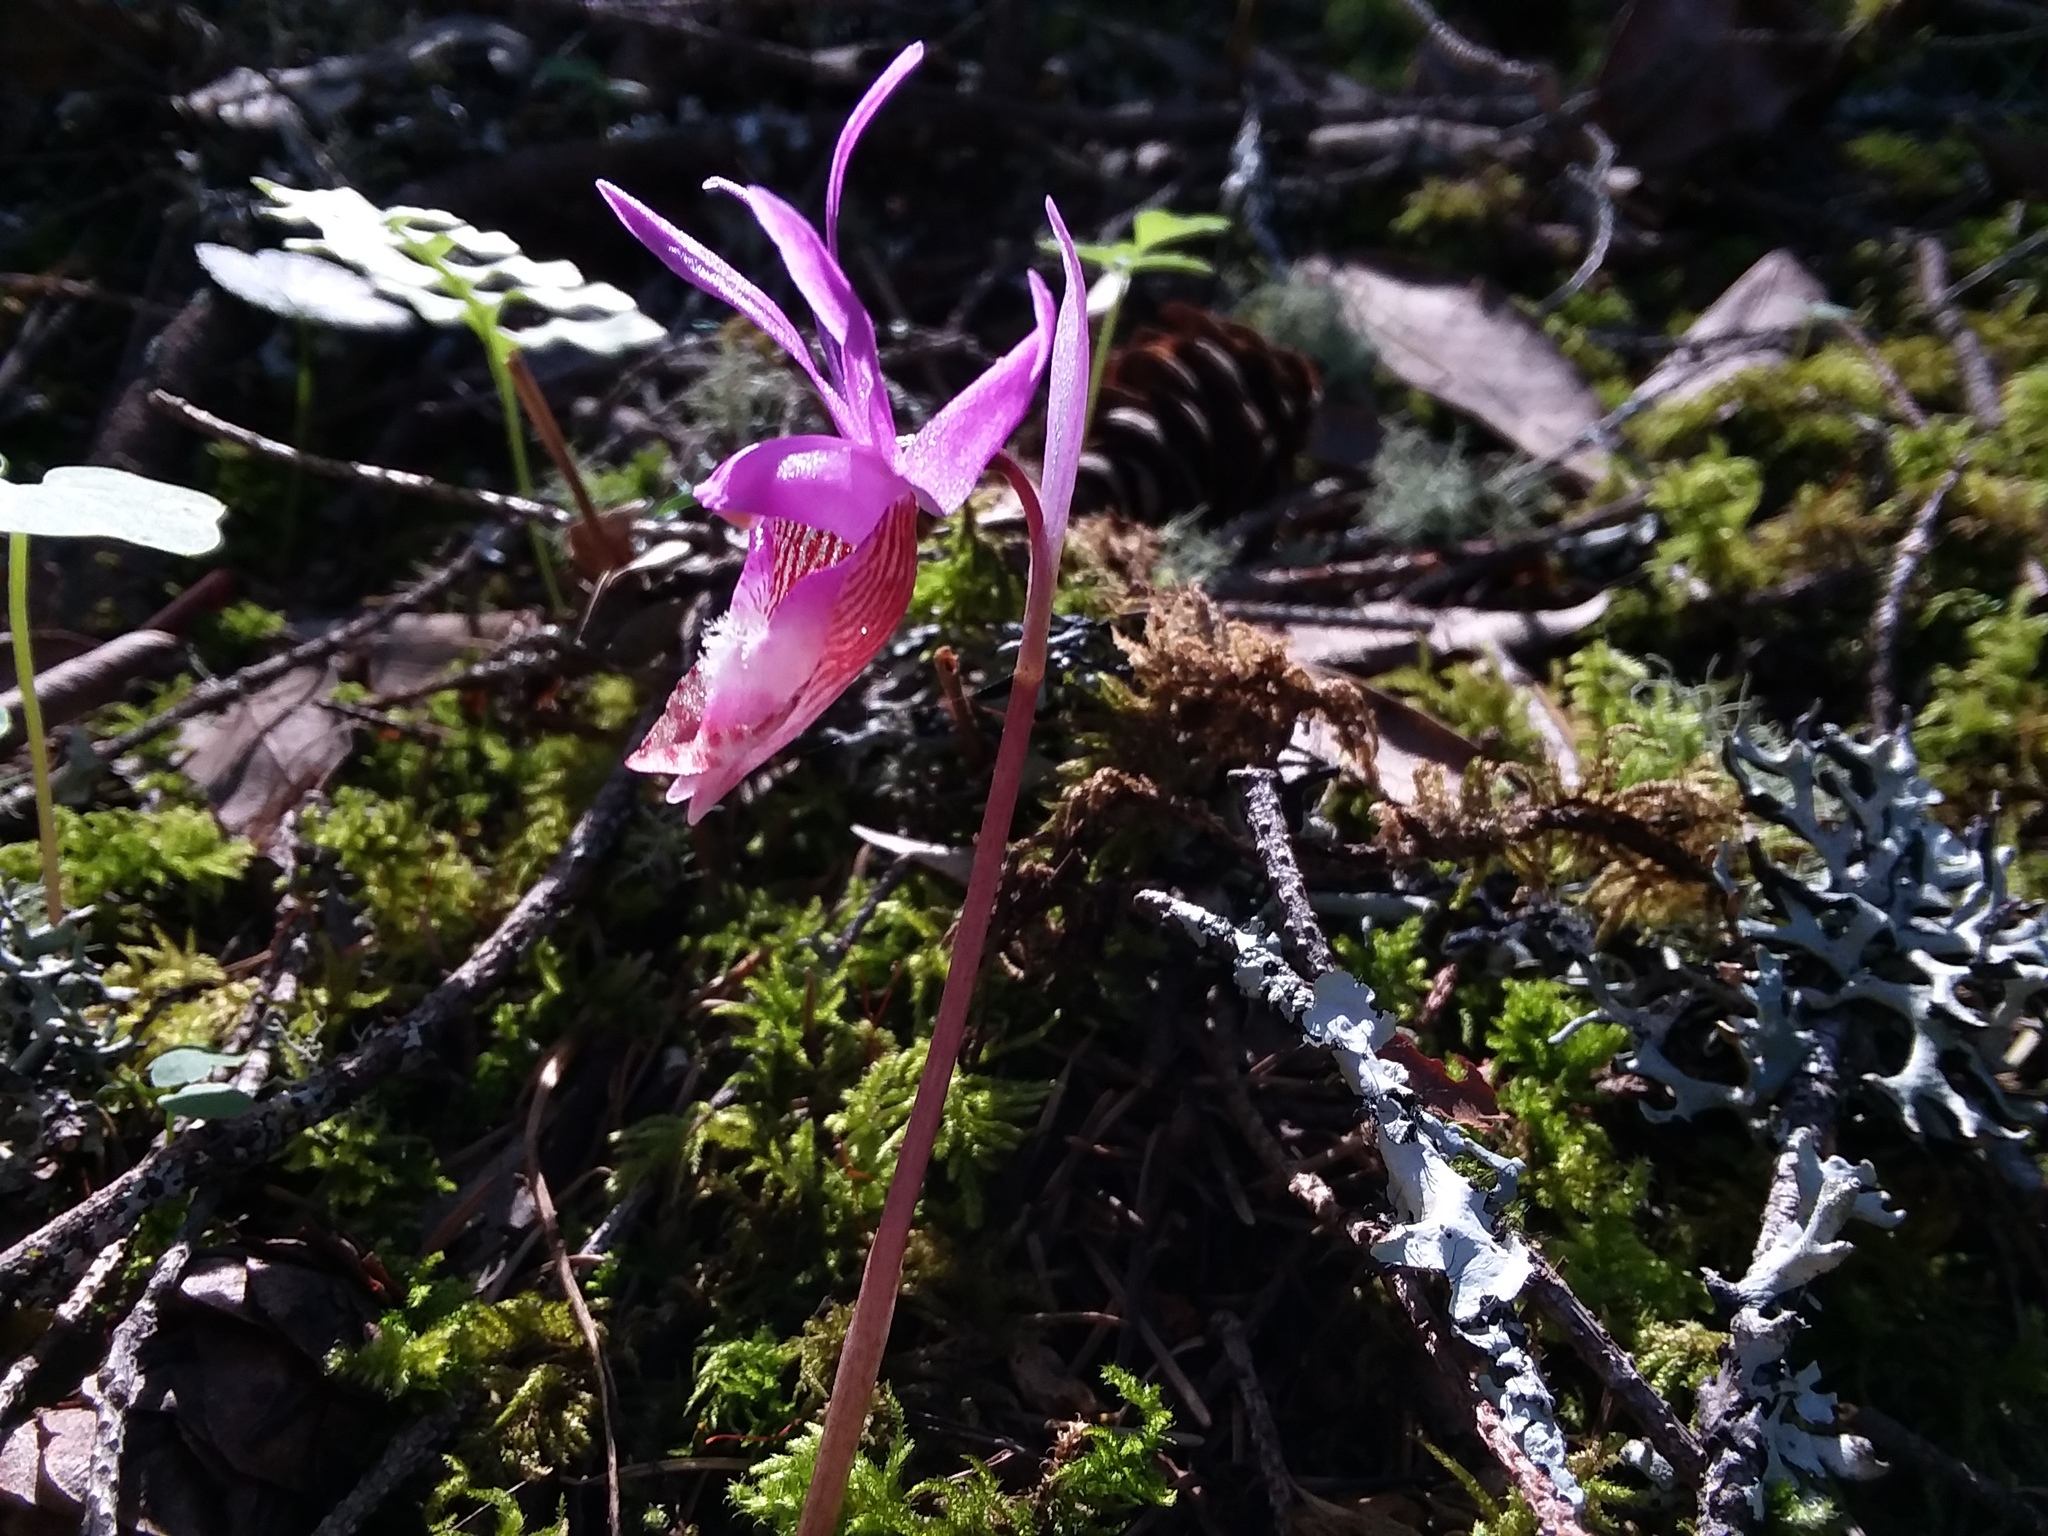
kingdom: Plantae
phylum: Tracheophyta
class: Liliopsida
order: Asparagales
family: Orchidaceae
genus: Calypso
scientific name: Calypso bulbosa
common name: Calypso
